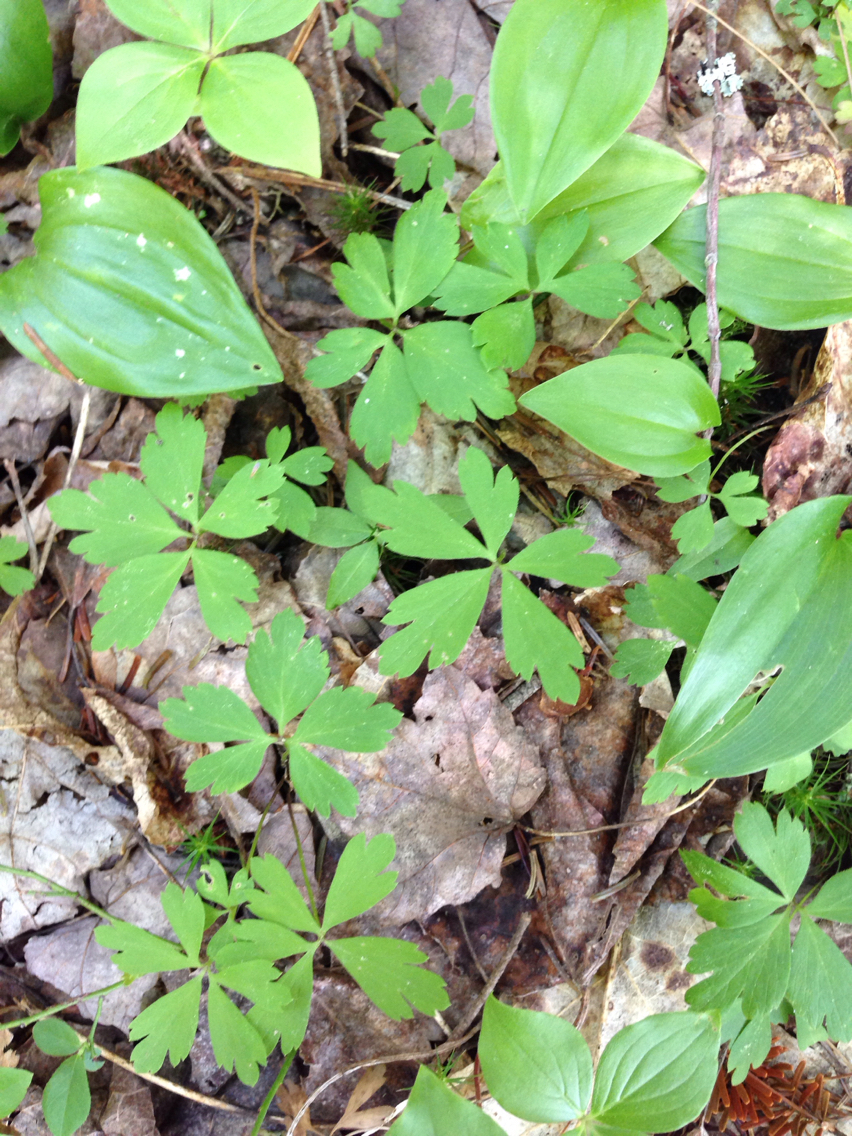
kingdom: Plantae
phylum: Tracheophyta
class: Magnoliopsida
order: Ranunculales
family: Ranunculaceae
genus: Anemone
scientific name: Anemone quinquefolia
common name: Wood anemone
